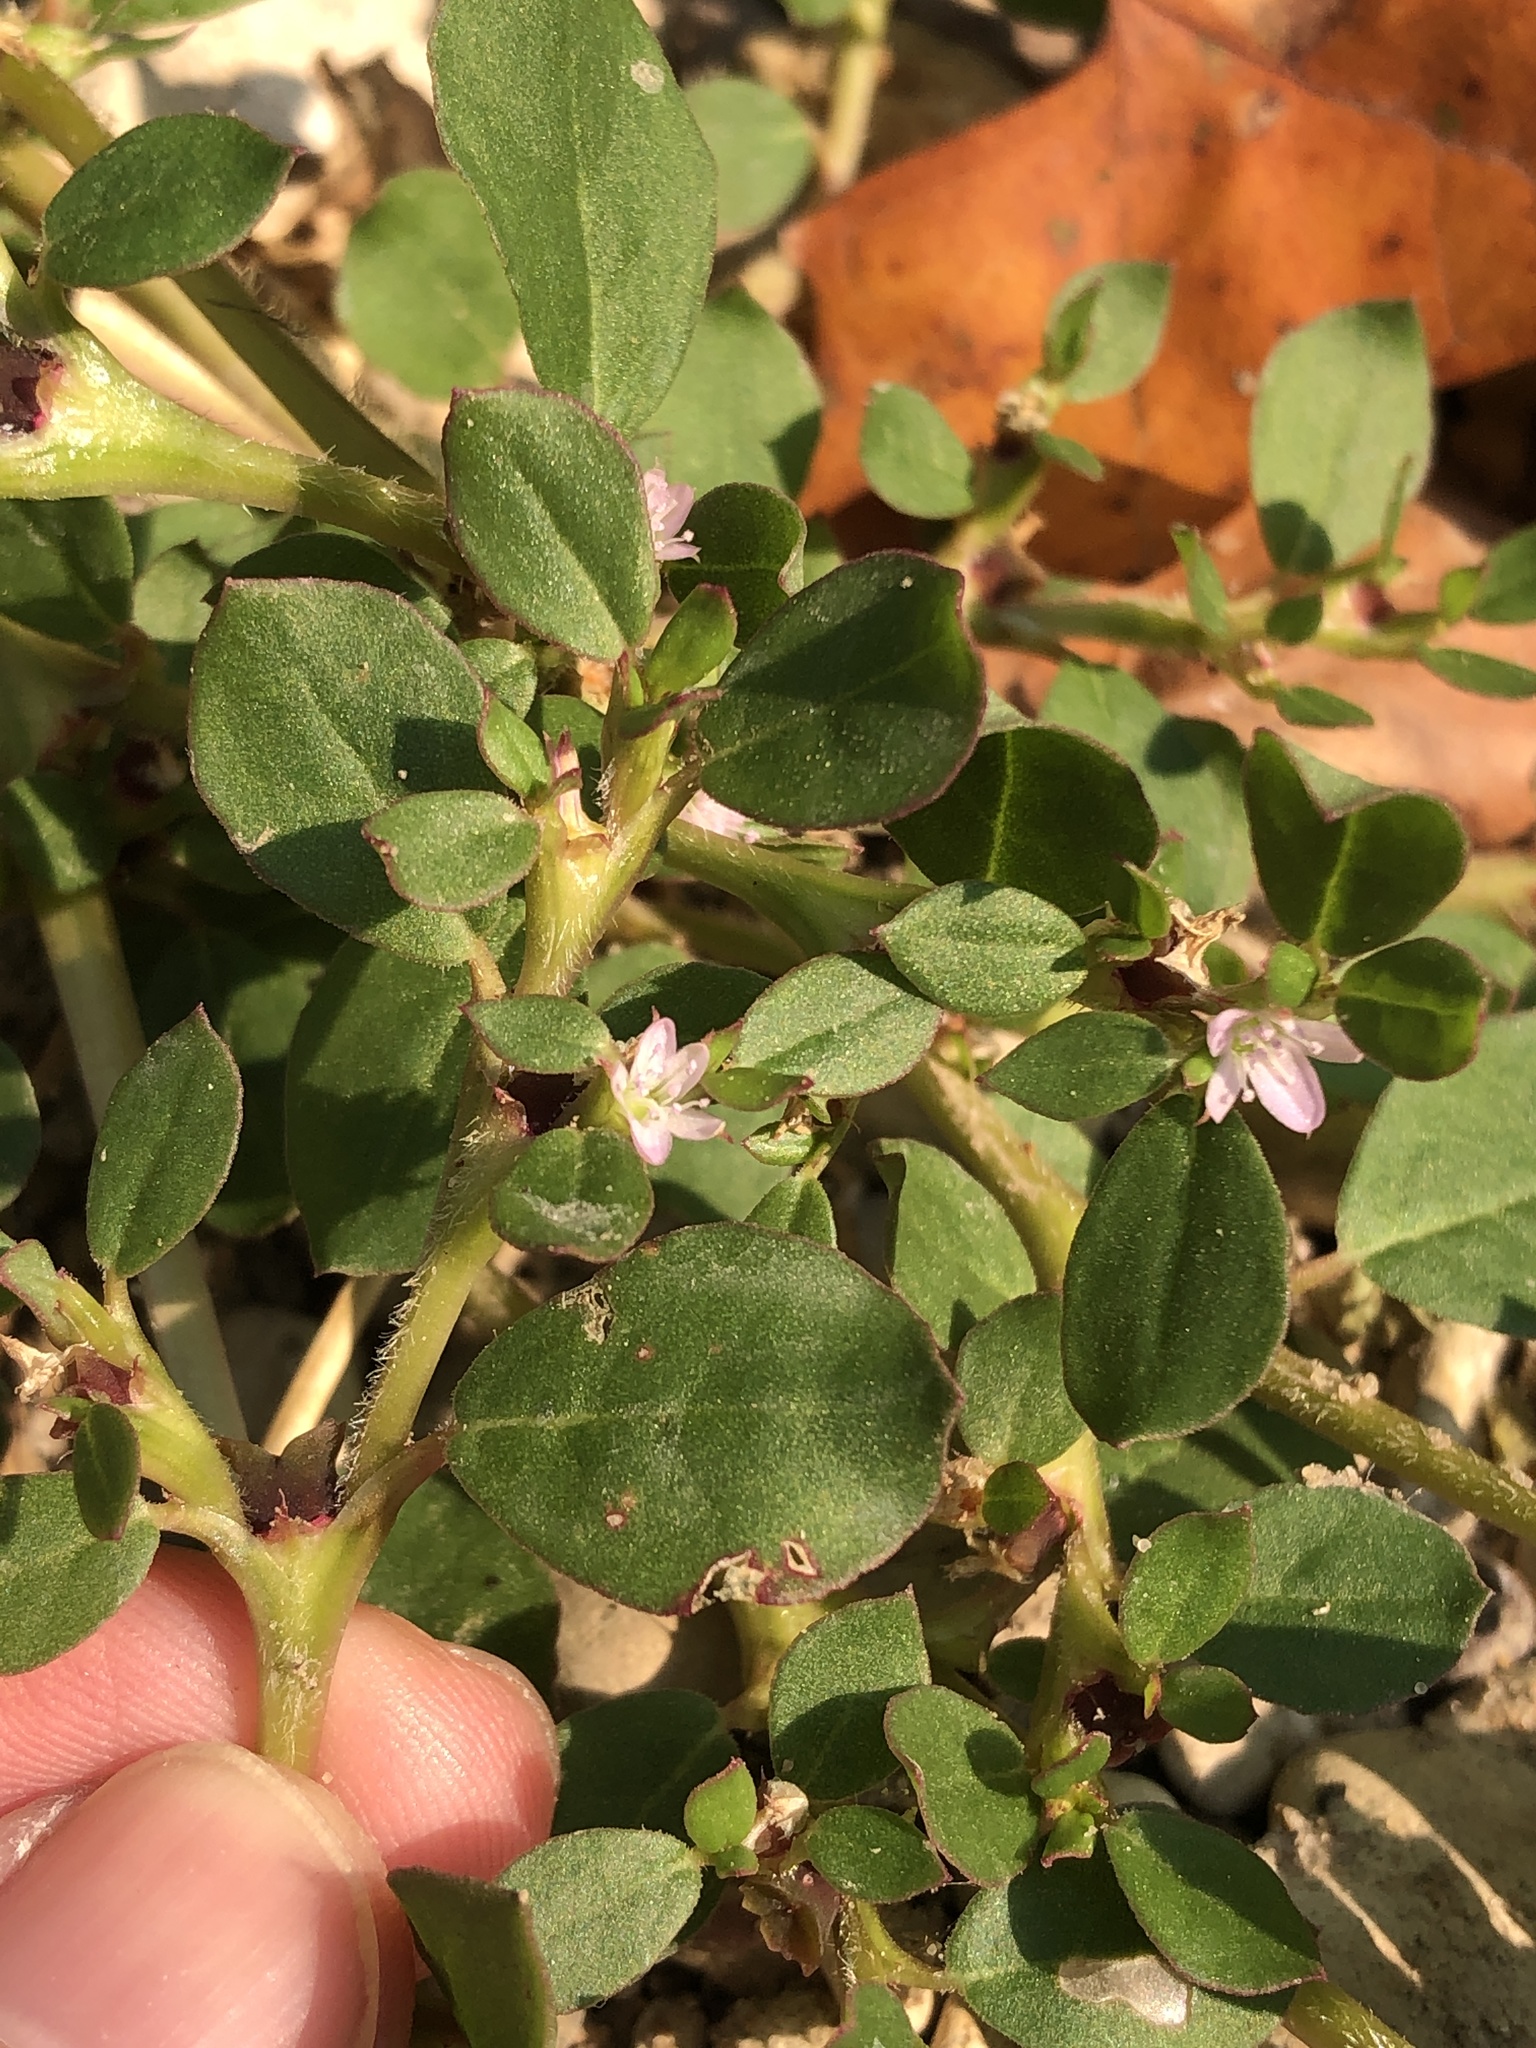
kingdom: Plantae
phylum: Tracheophyta
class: Magnoliopsida
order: Caryophyllales
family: Aizoaceae
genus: Trianthema
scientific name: Trianthema portulacastrum
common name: Desert horsepurslane
